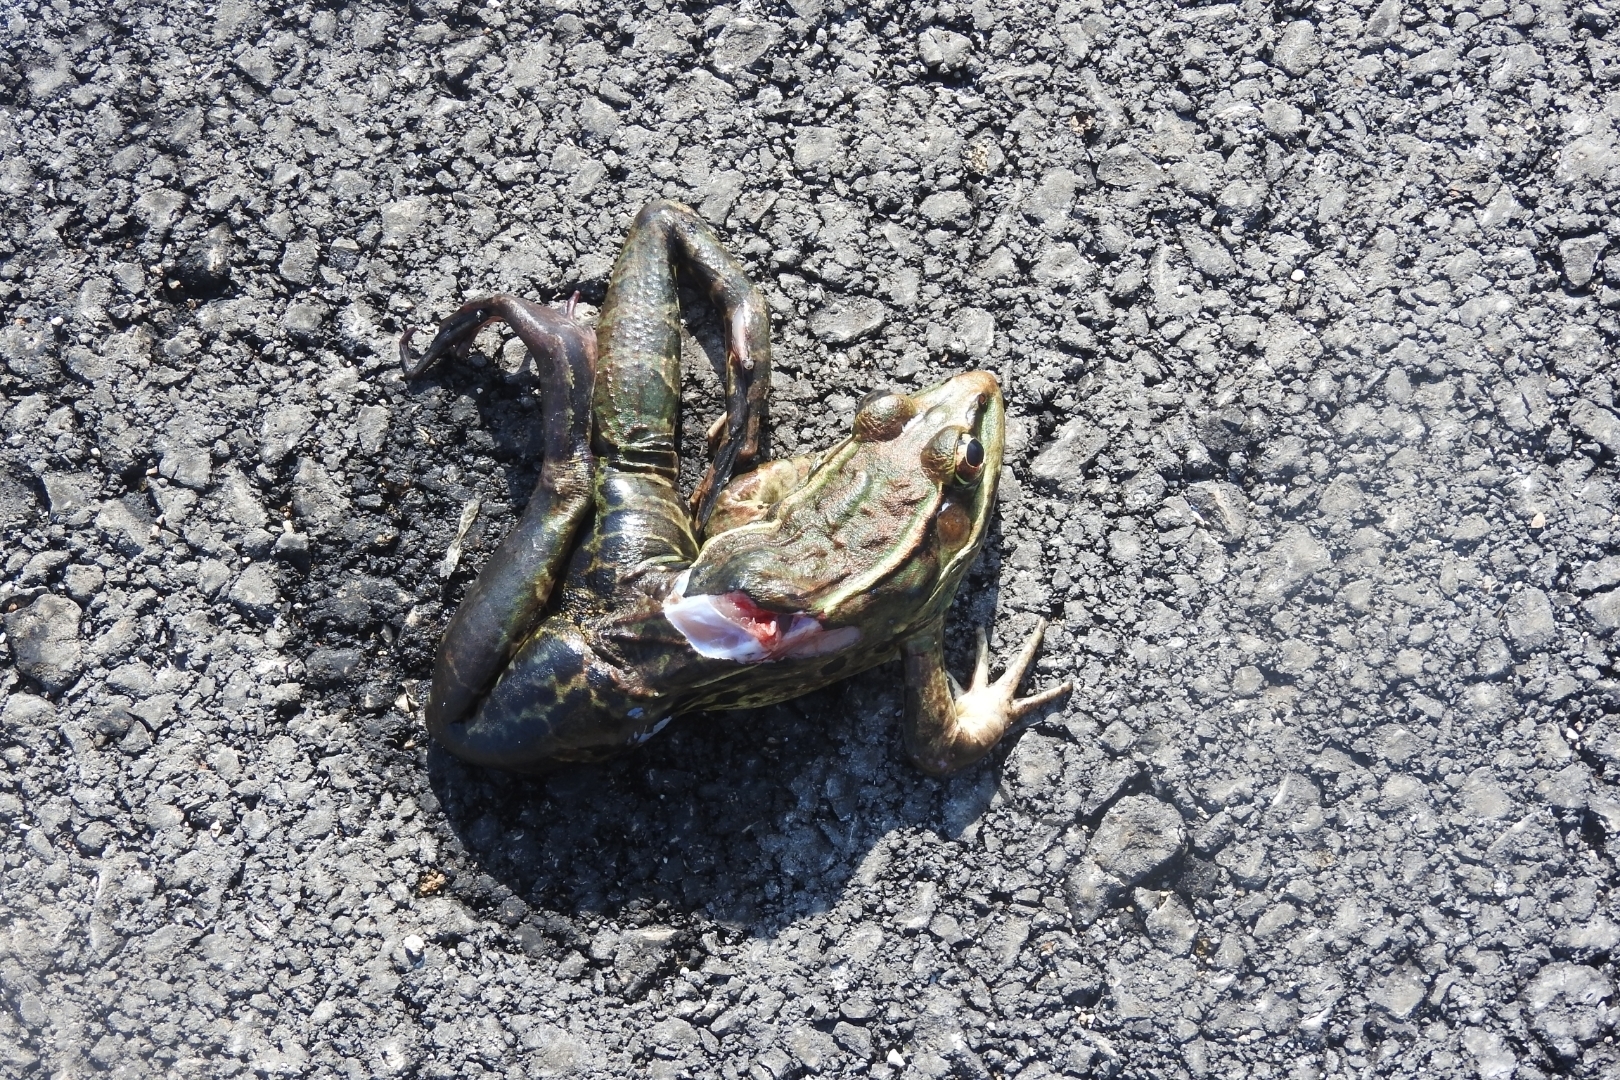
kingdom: Animalia
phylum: Chordata
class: Amphibia
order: Anura
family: Ranidae
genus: Lithobates
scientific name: Lithobates brownorum
